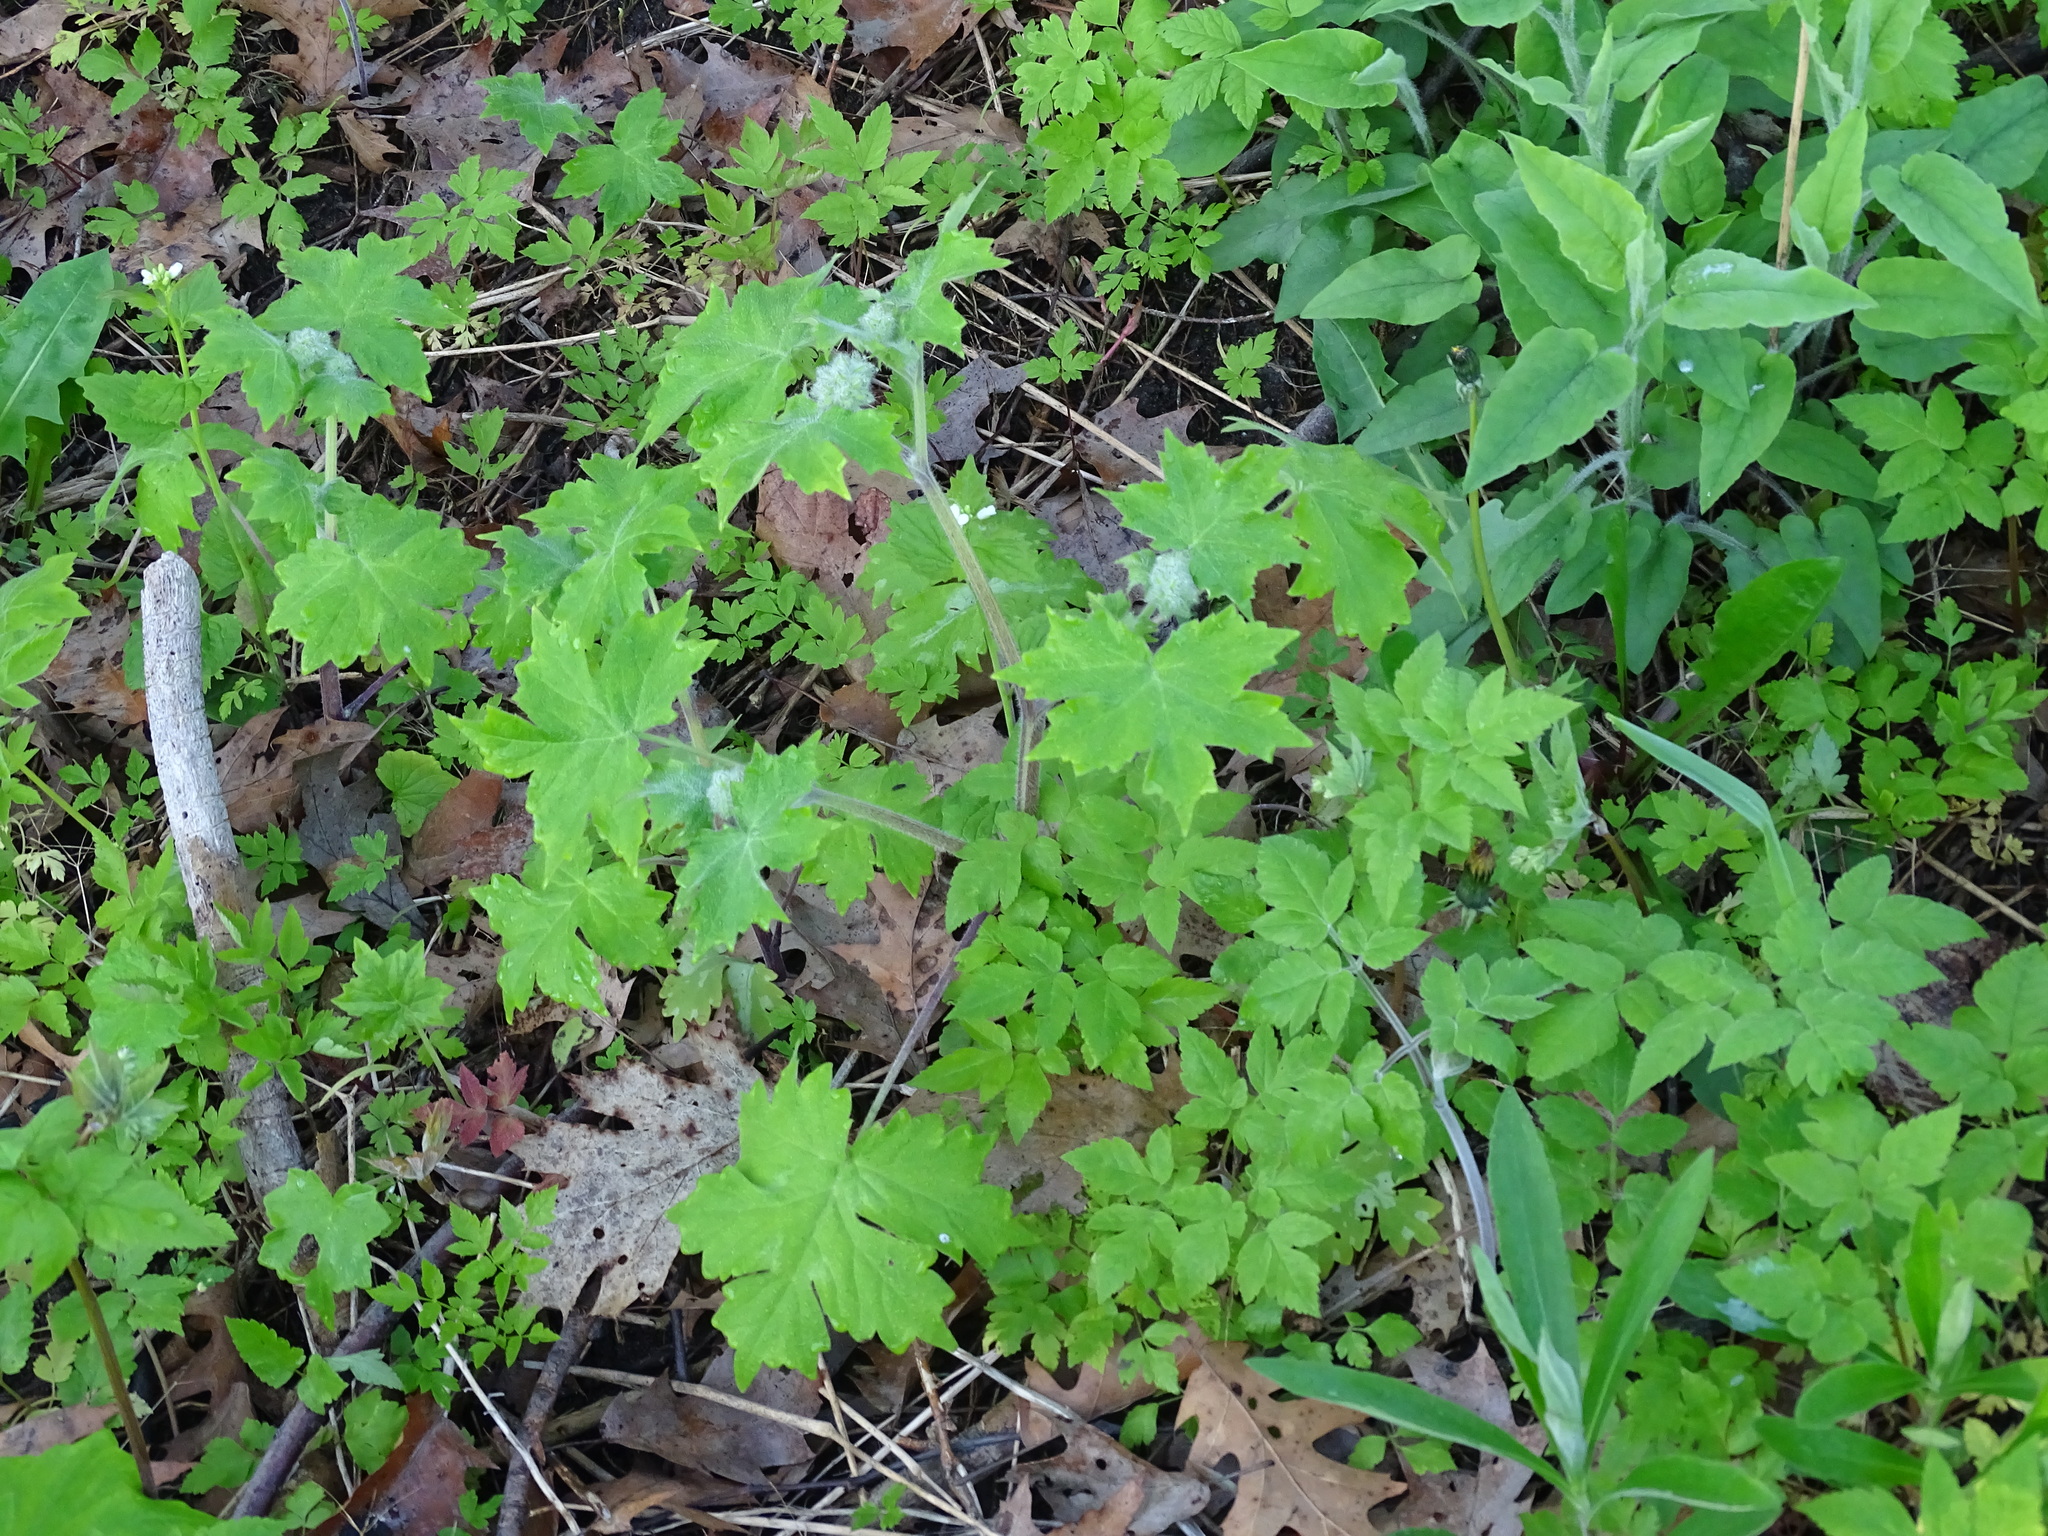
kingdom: Plantae
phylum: Tracheophyta
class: Magnoliopsida
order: Boraginales
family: Hydrophyllaceae
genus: Hydrophyllum
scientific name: Hydrophyllum appendiculatum
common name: Appendaged waterleaf
